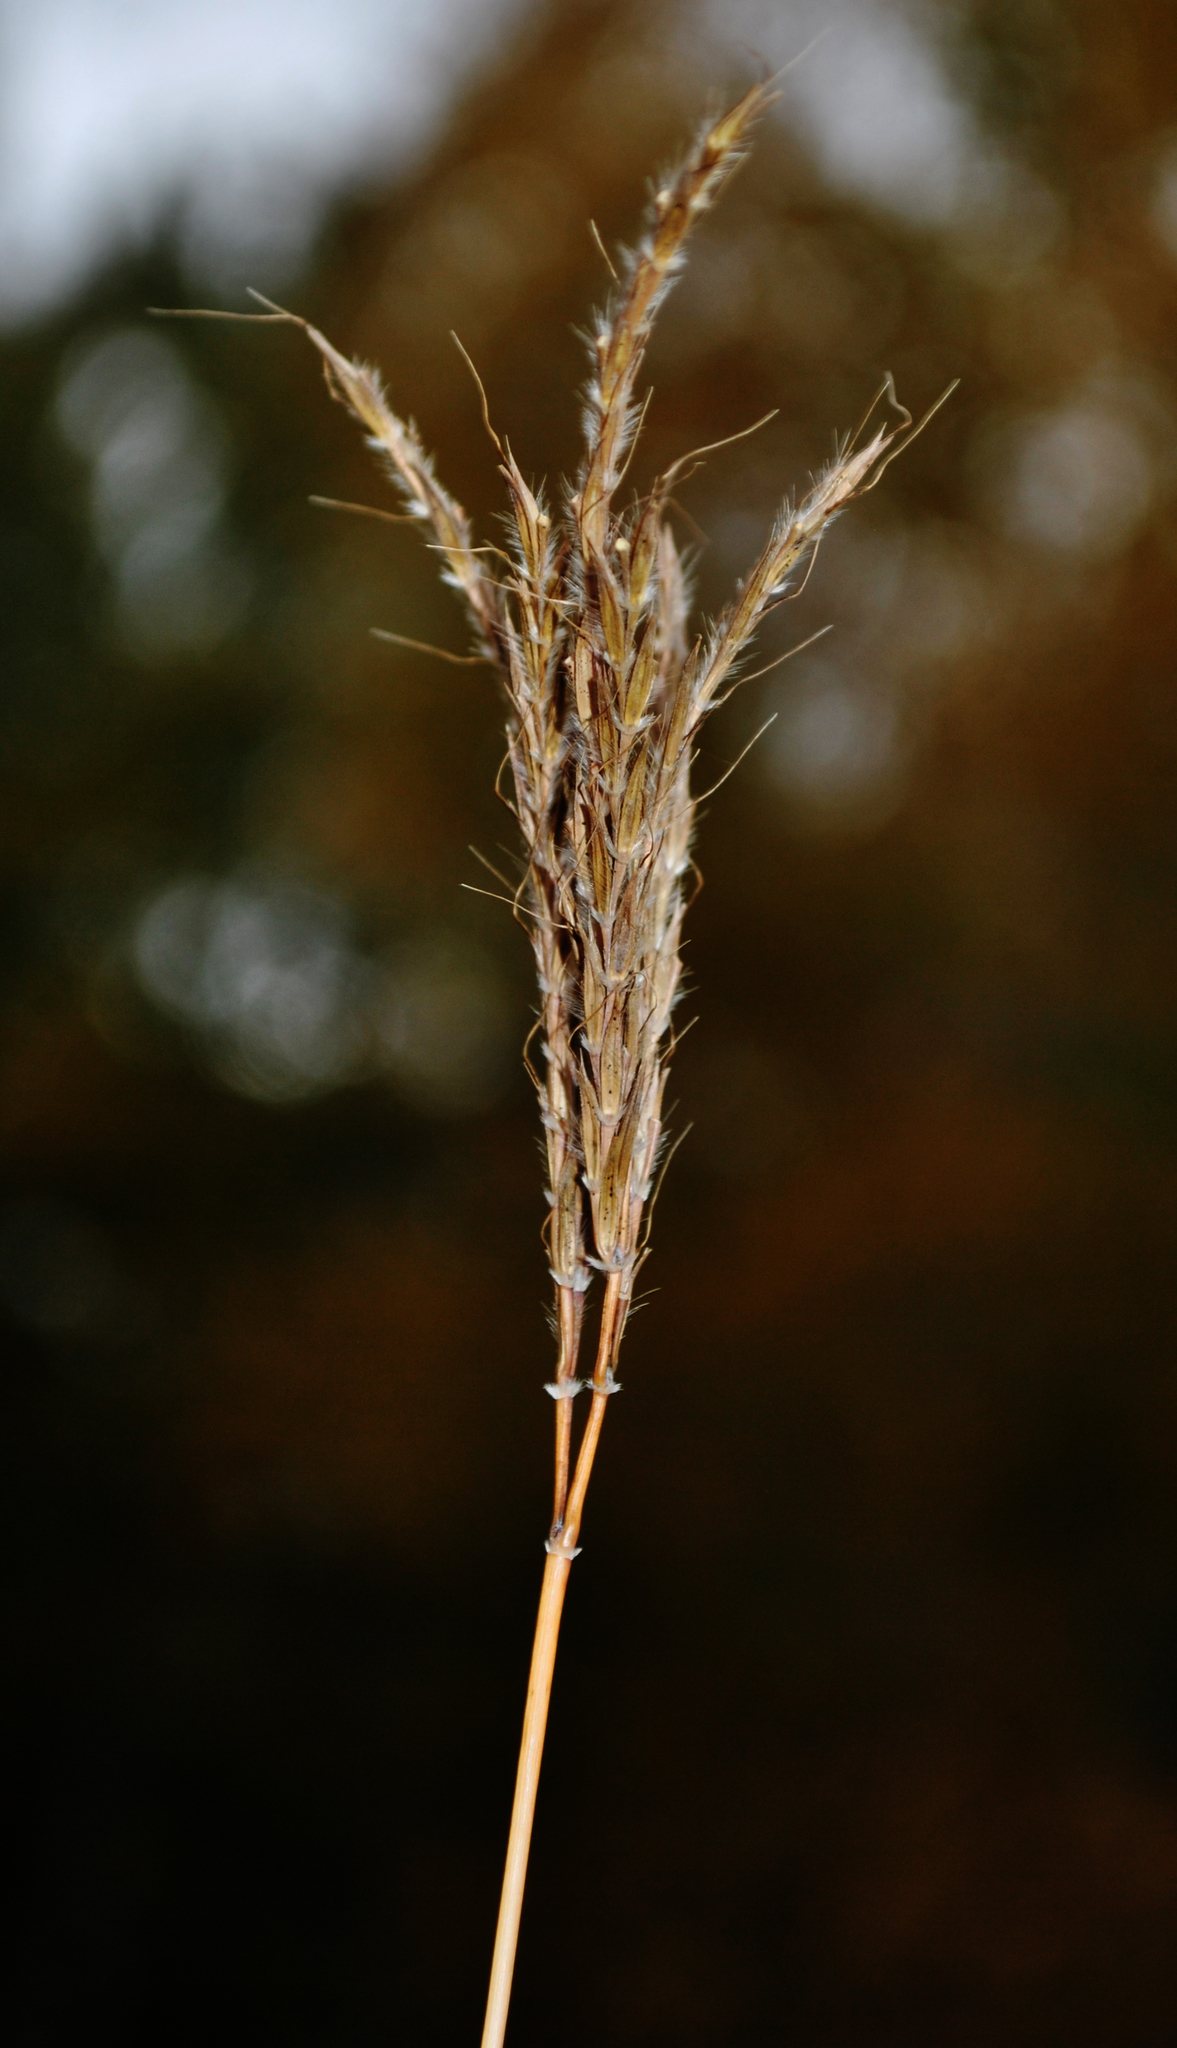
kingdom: Plantae
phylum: Tracheophyta
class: Liliopsida
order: Poales
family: Poaceae
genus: Andropogon
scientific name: Andropogon gerardi
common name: Big bluestem
